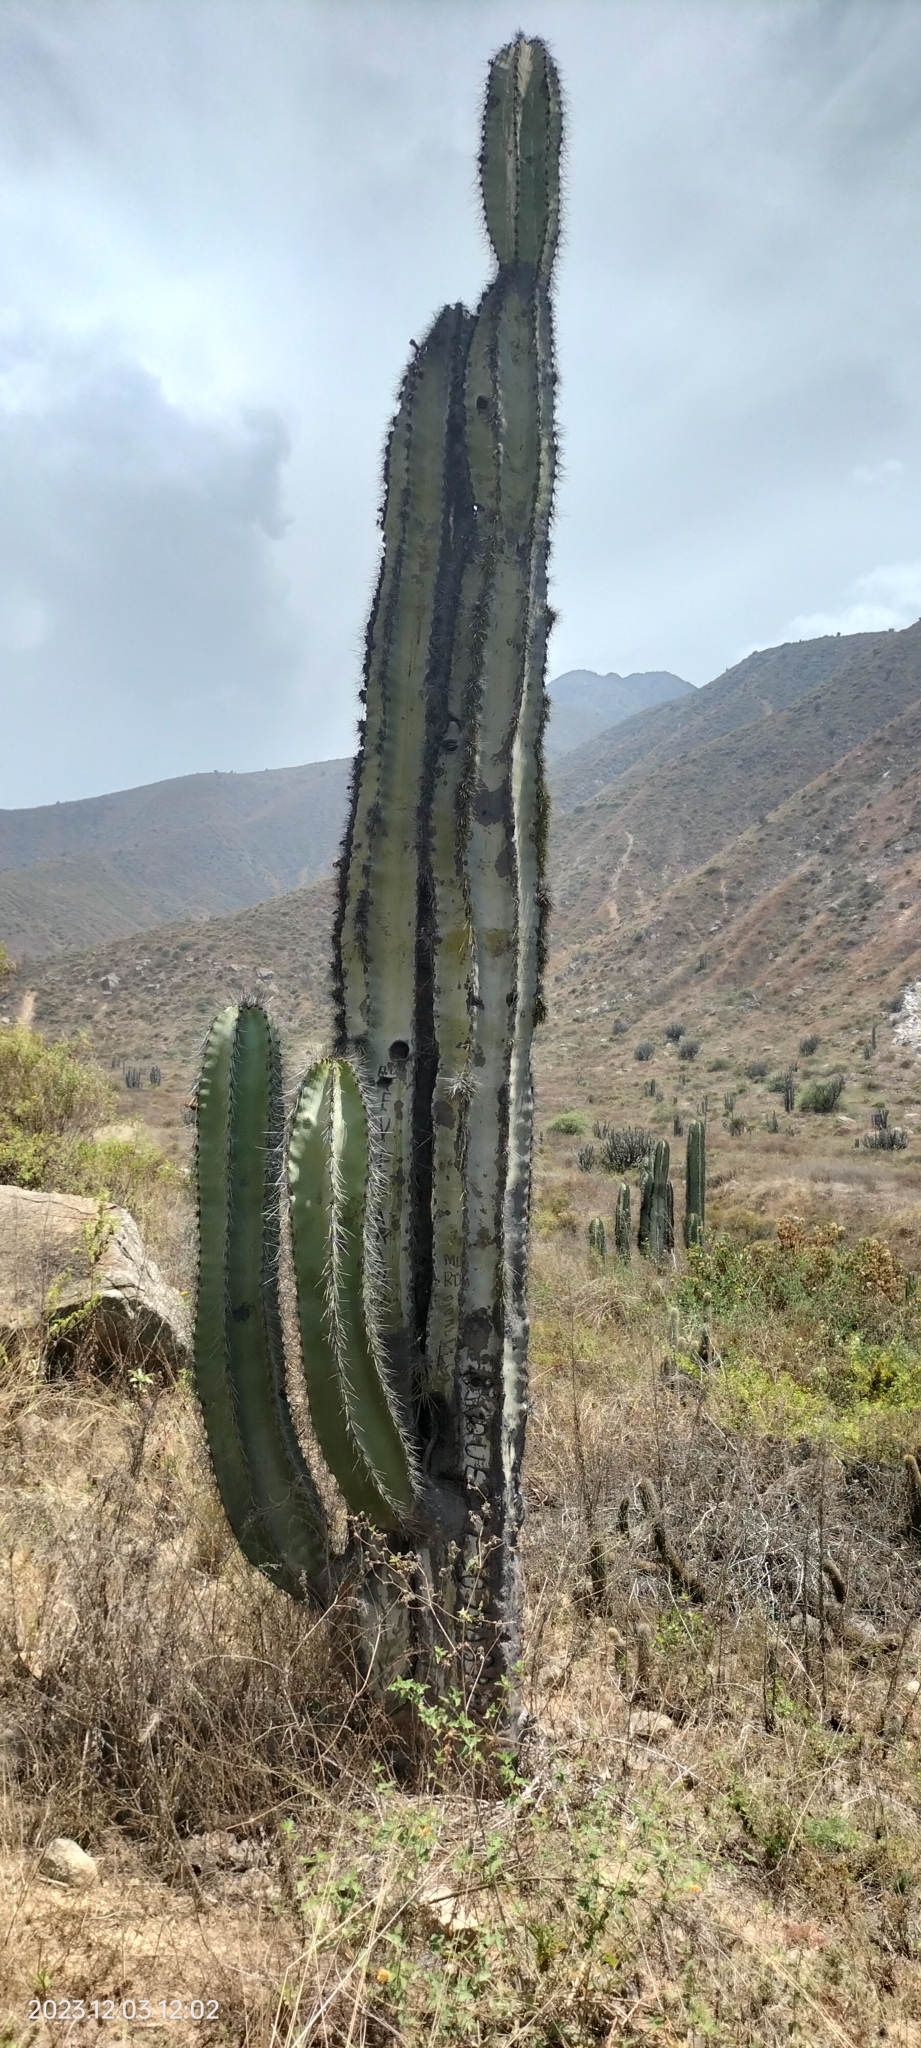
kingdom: Plantae
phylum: Tracheophyta
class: Magnoliopsida
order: Caryophyllales
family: Cactaceae
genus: Neoraimondia
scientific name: Neoraimondia arequipensis
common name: Big-bed-of-straw
